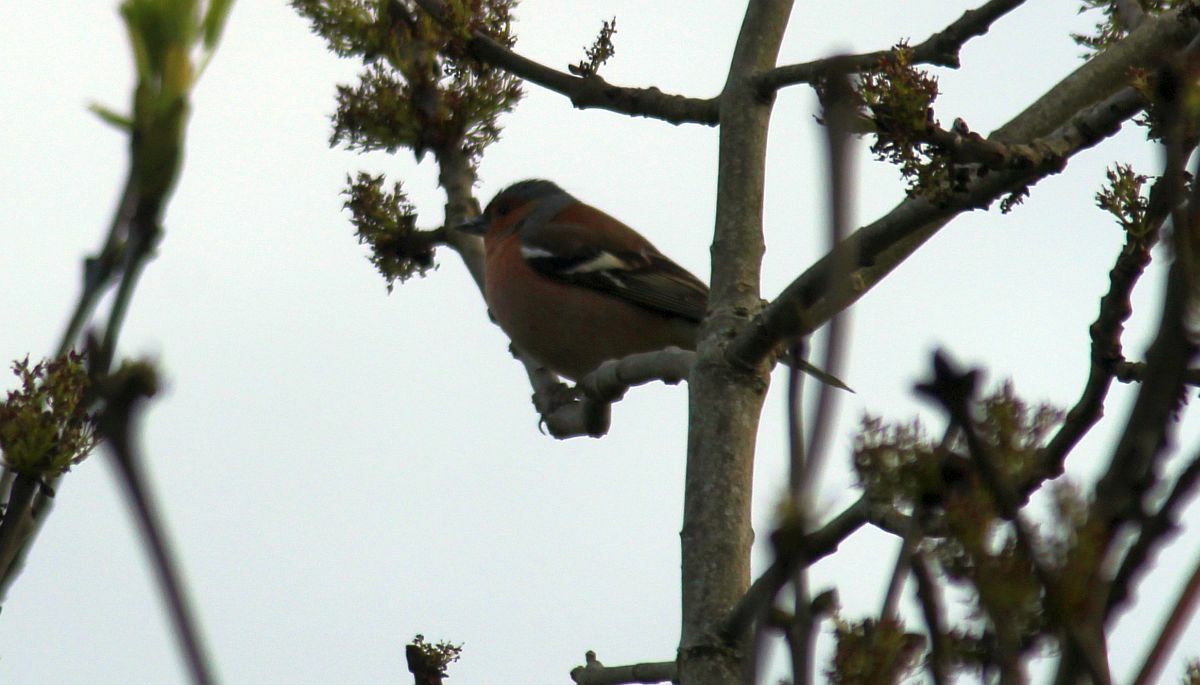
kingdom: Animalia
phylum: Chordata
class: Aves
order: Passeriformes
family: Fringillidae
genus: Fringilla
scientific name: Fringilla coelebs
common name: Common chaffinch
